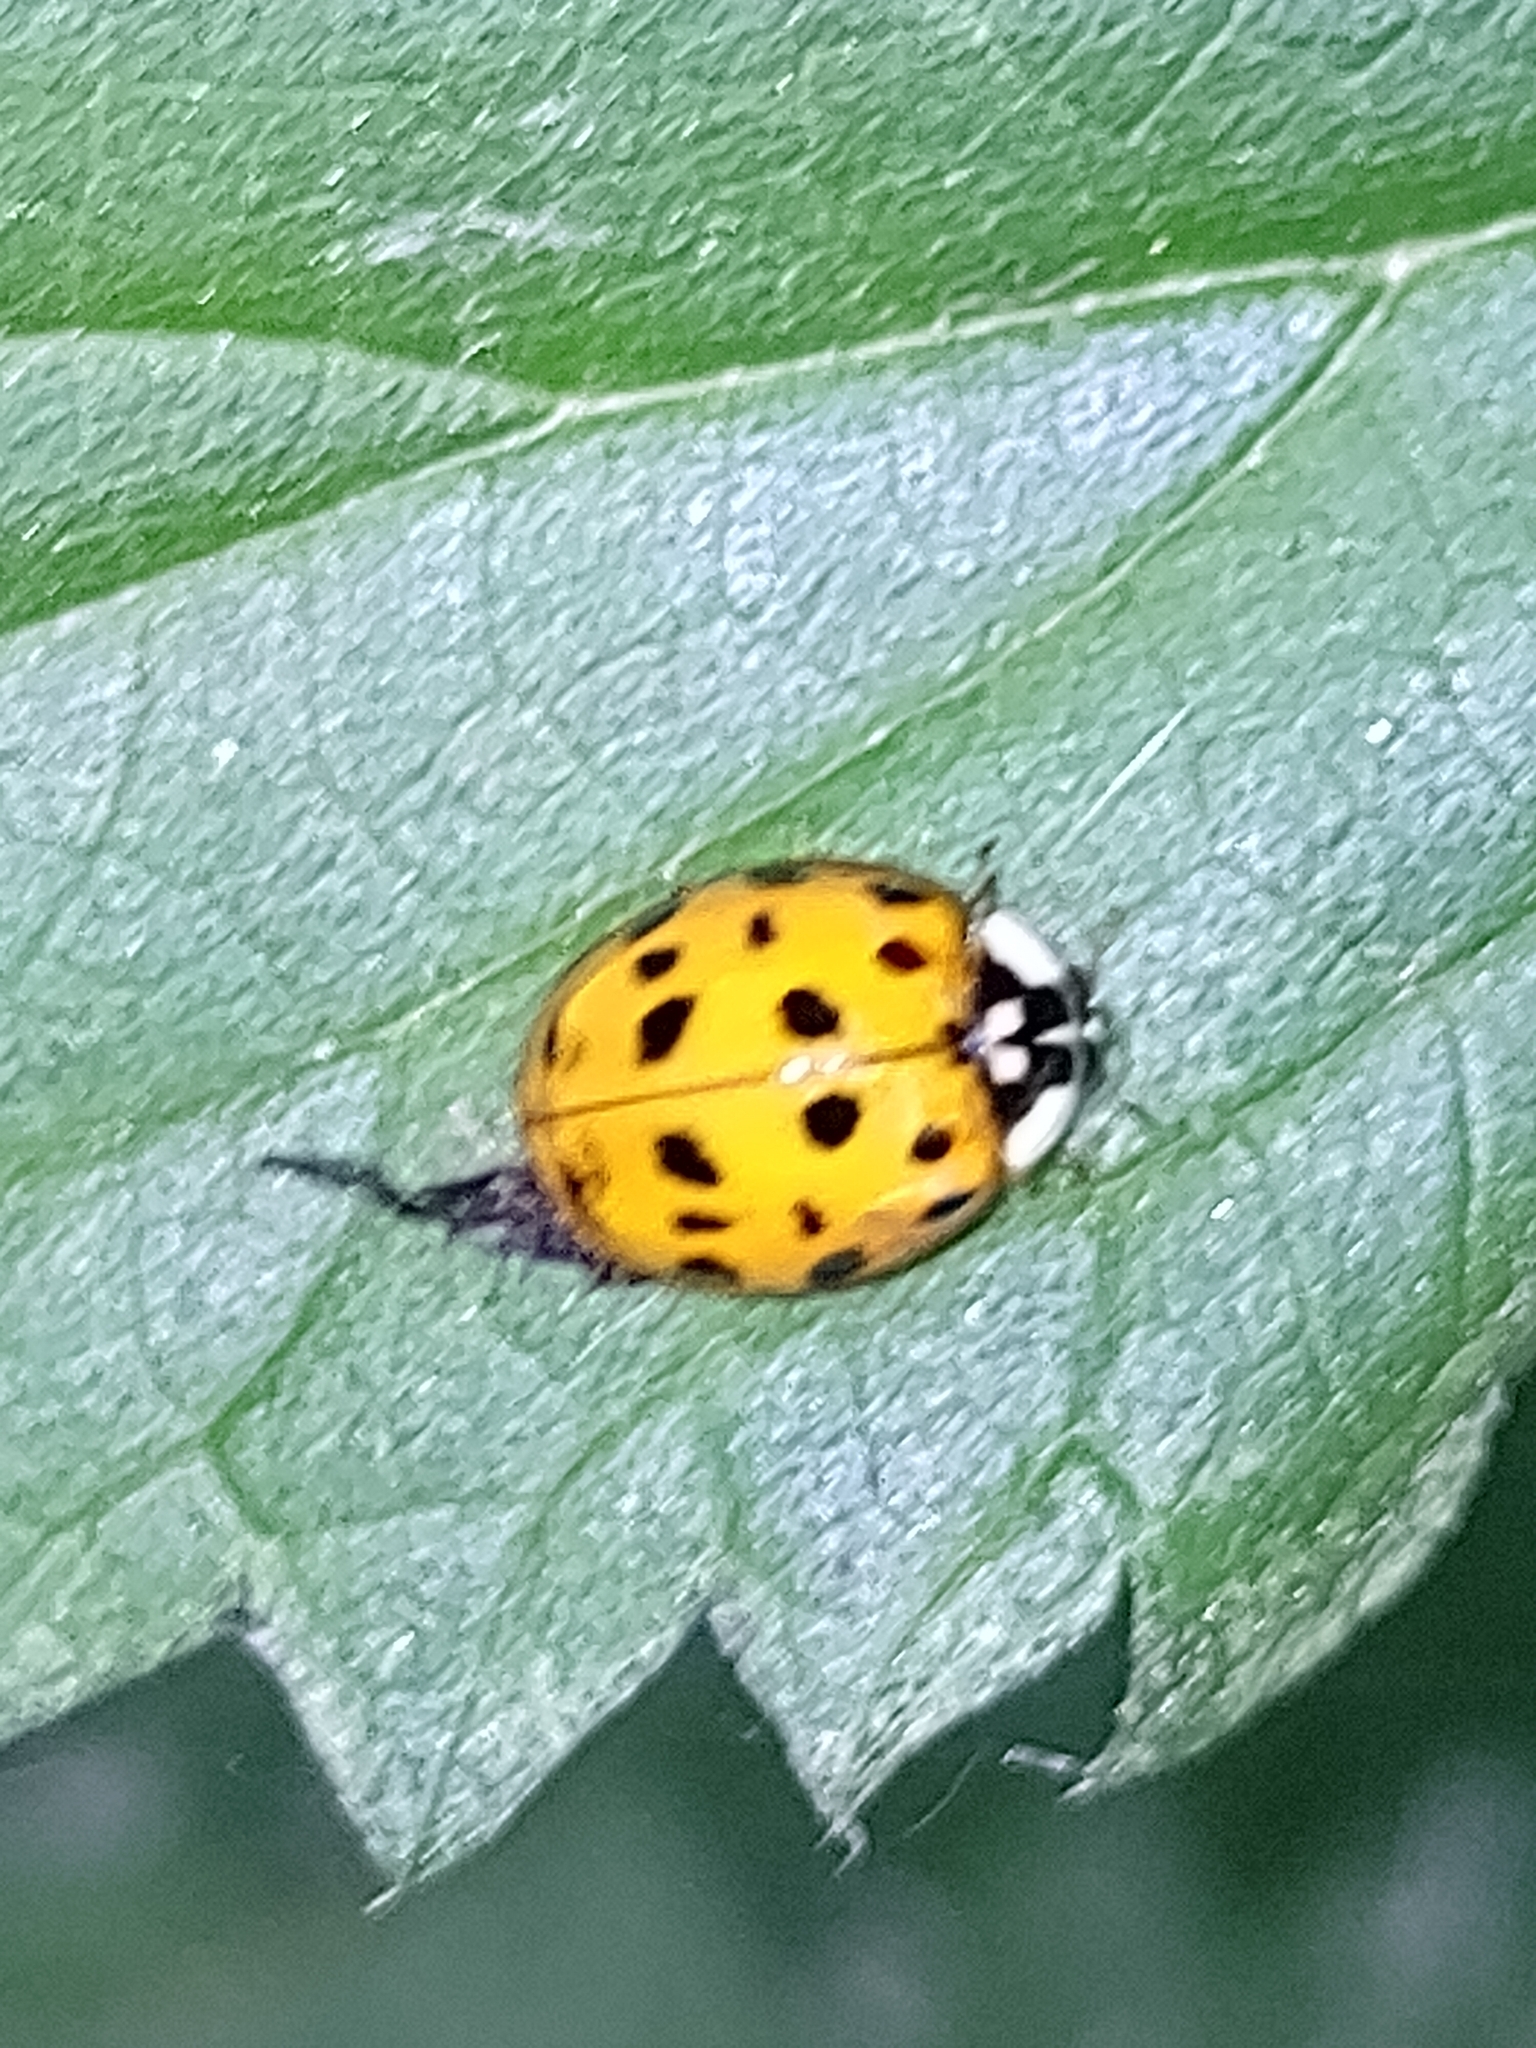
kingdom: Animalia
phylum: Arthropoda
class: Insecta
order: Coleoptera
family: Coccinellidae
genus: Harmonia
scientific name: Harmonia axyridis
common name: Harlequin ladybird
